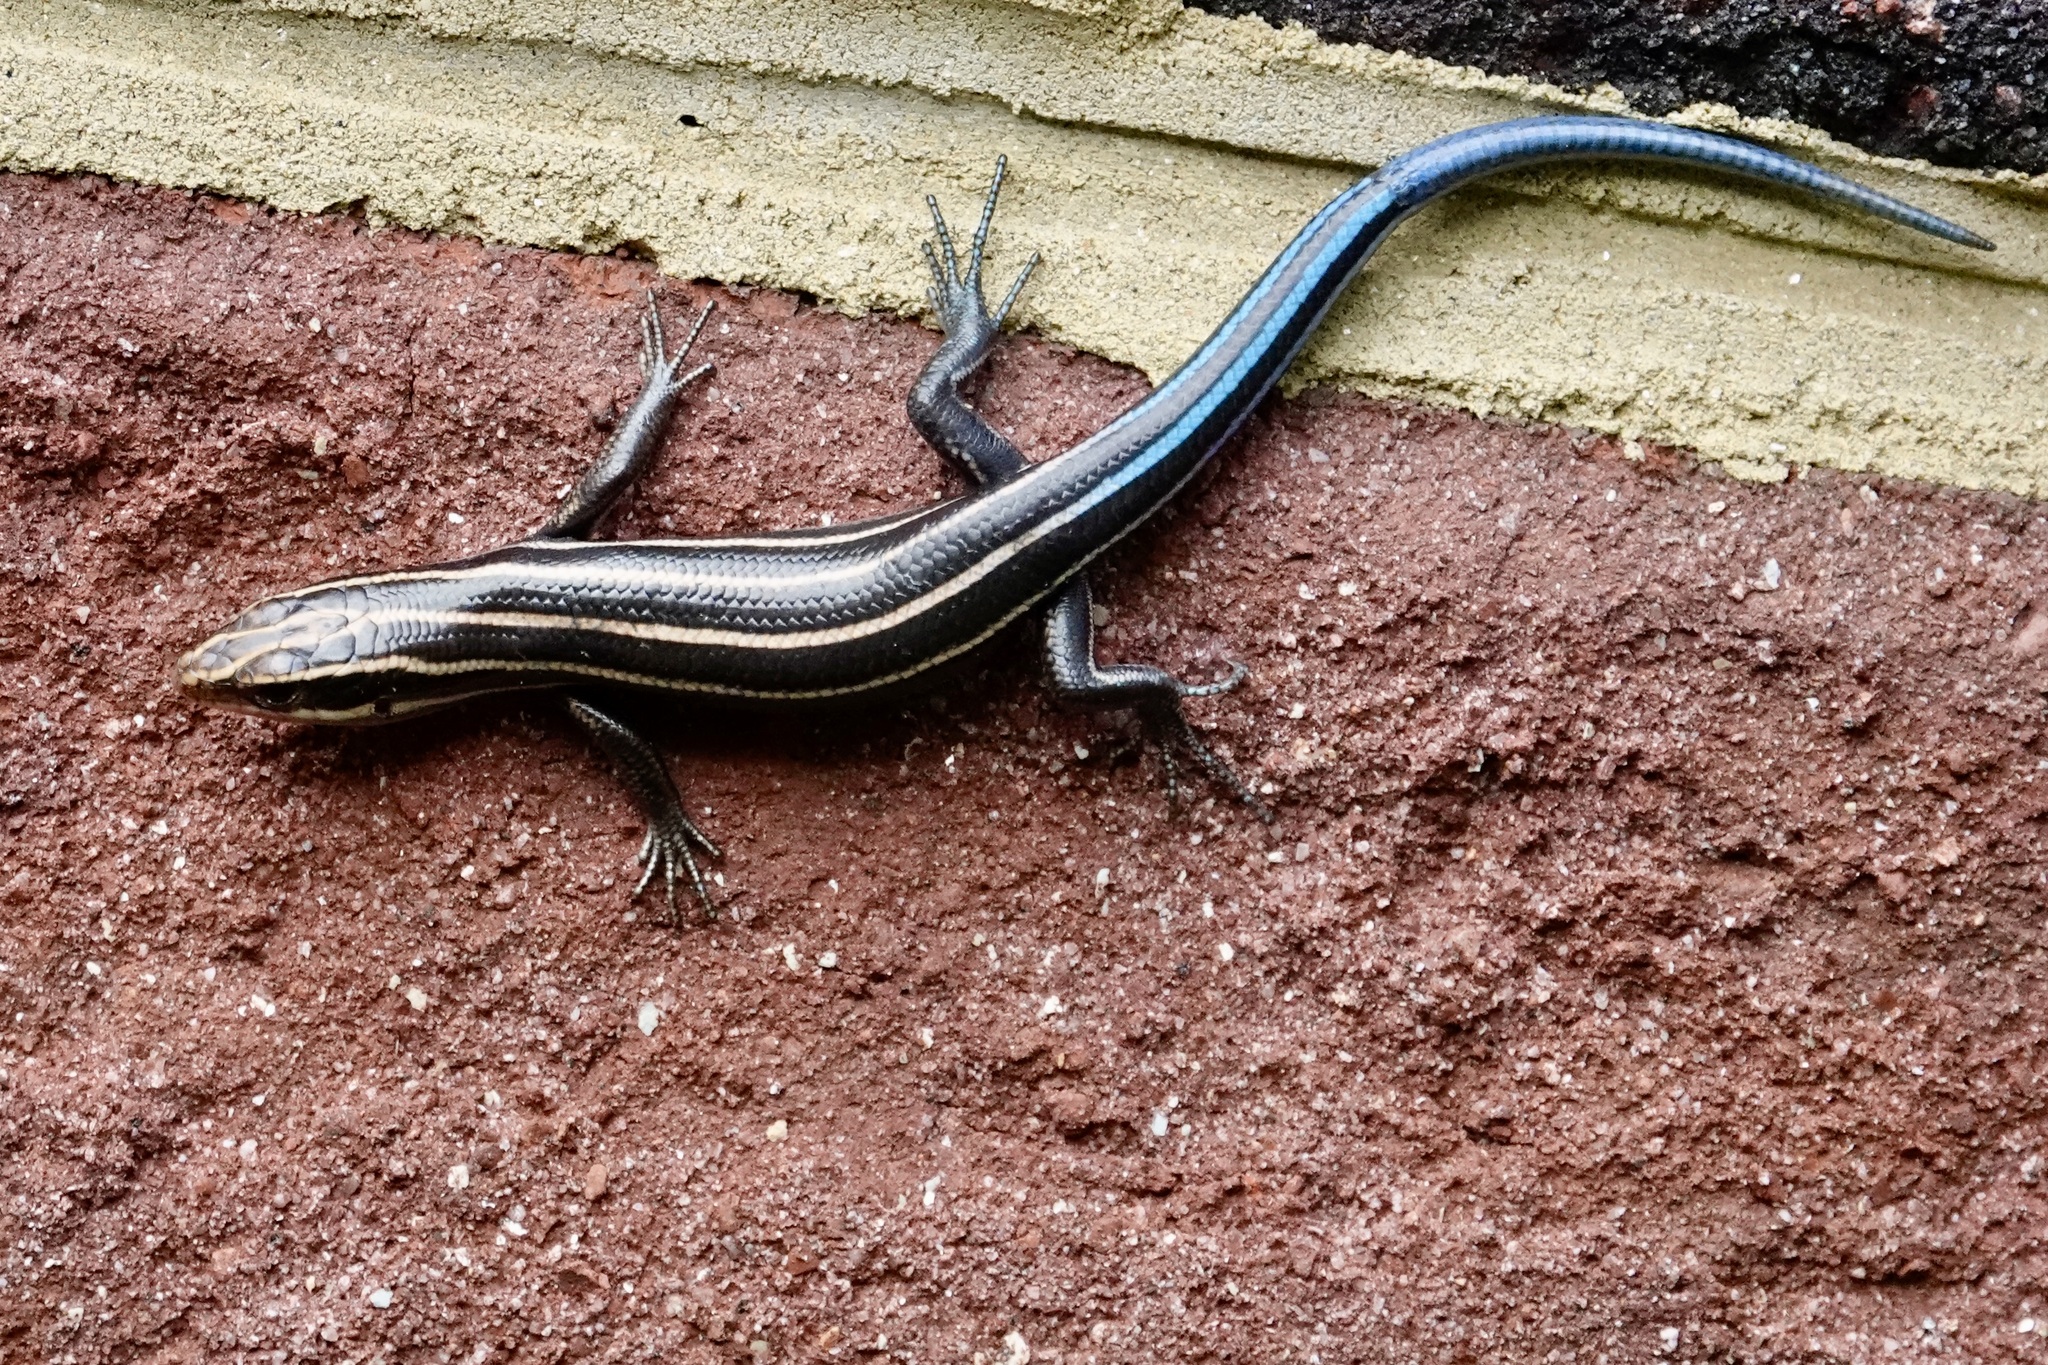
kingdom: Animalia
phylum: Chordata
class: Squamata
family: Scincidae
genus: Plestiodon
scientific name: Plestiodon fasciatus
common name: Five-lined skink
